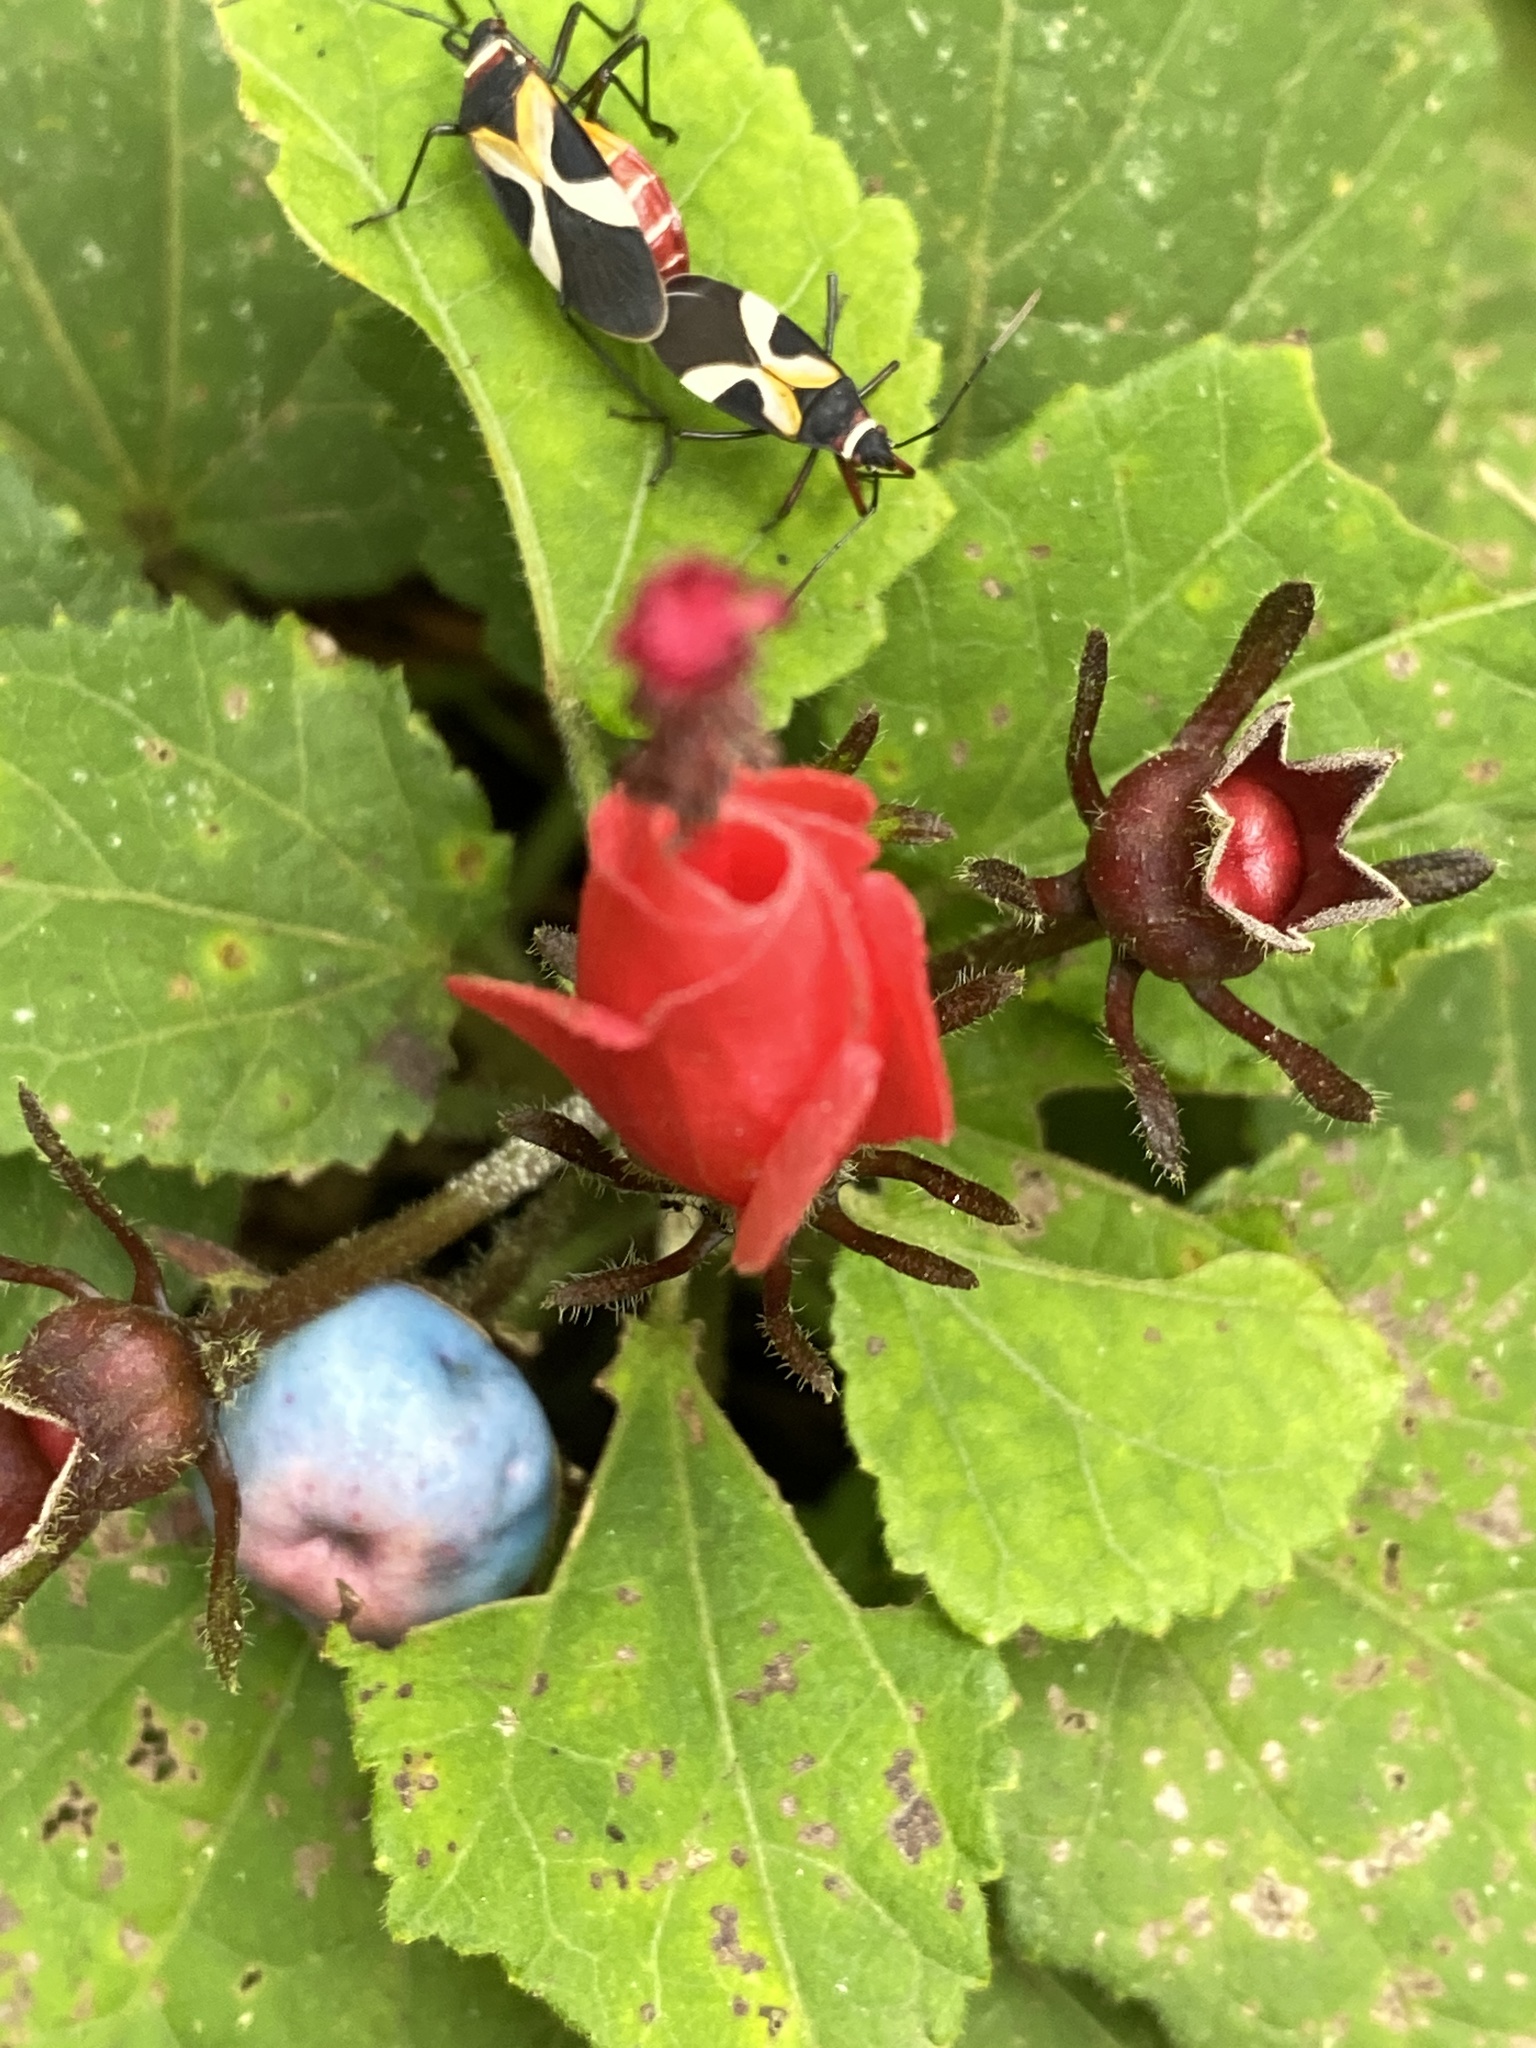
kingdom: Plantae
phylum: Tracheophyta
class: Magnoliopsida
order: Malvales
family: Malvaceae
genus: Malvaviscus
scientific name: Malvaviscus arboreus
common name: Wax mallow
